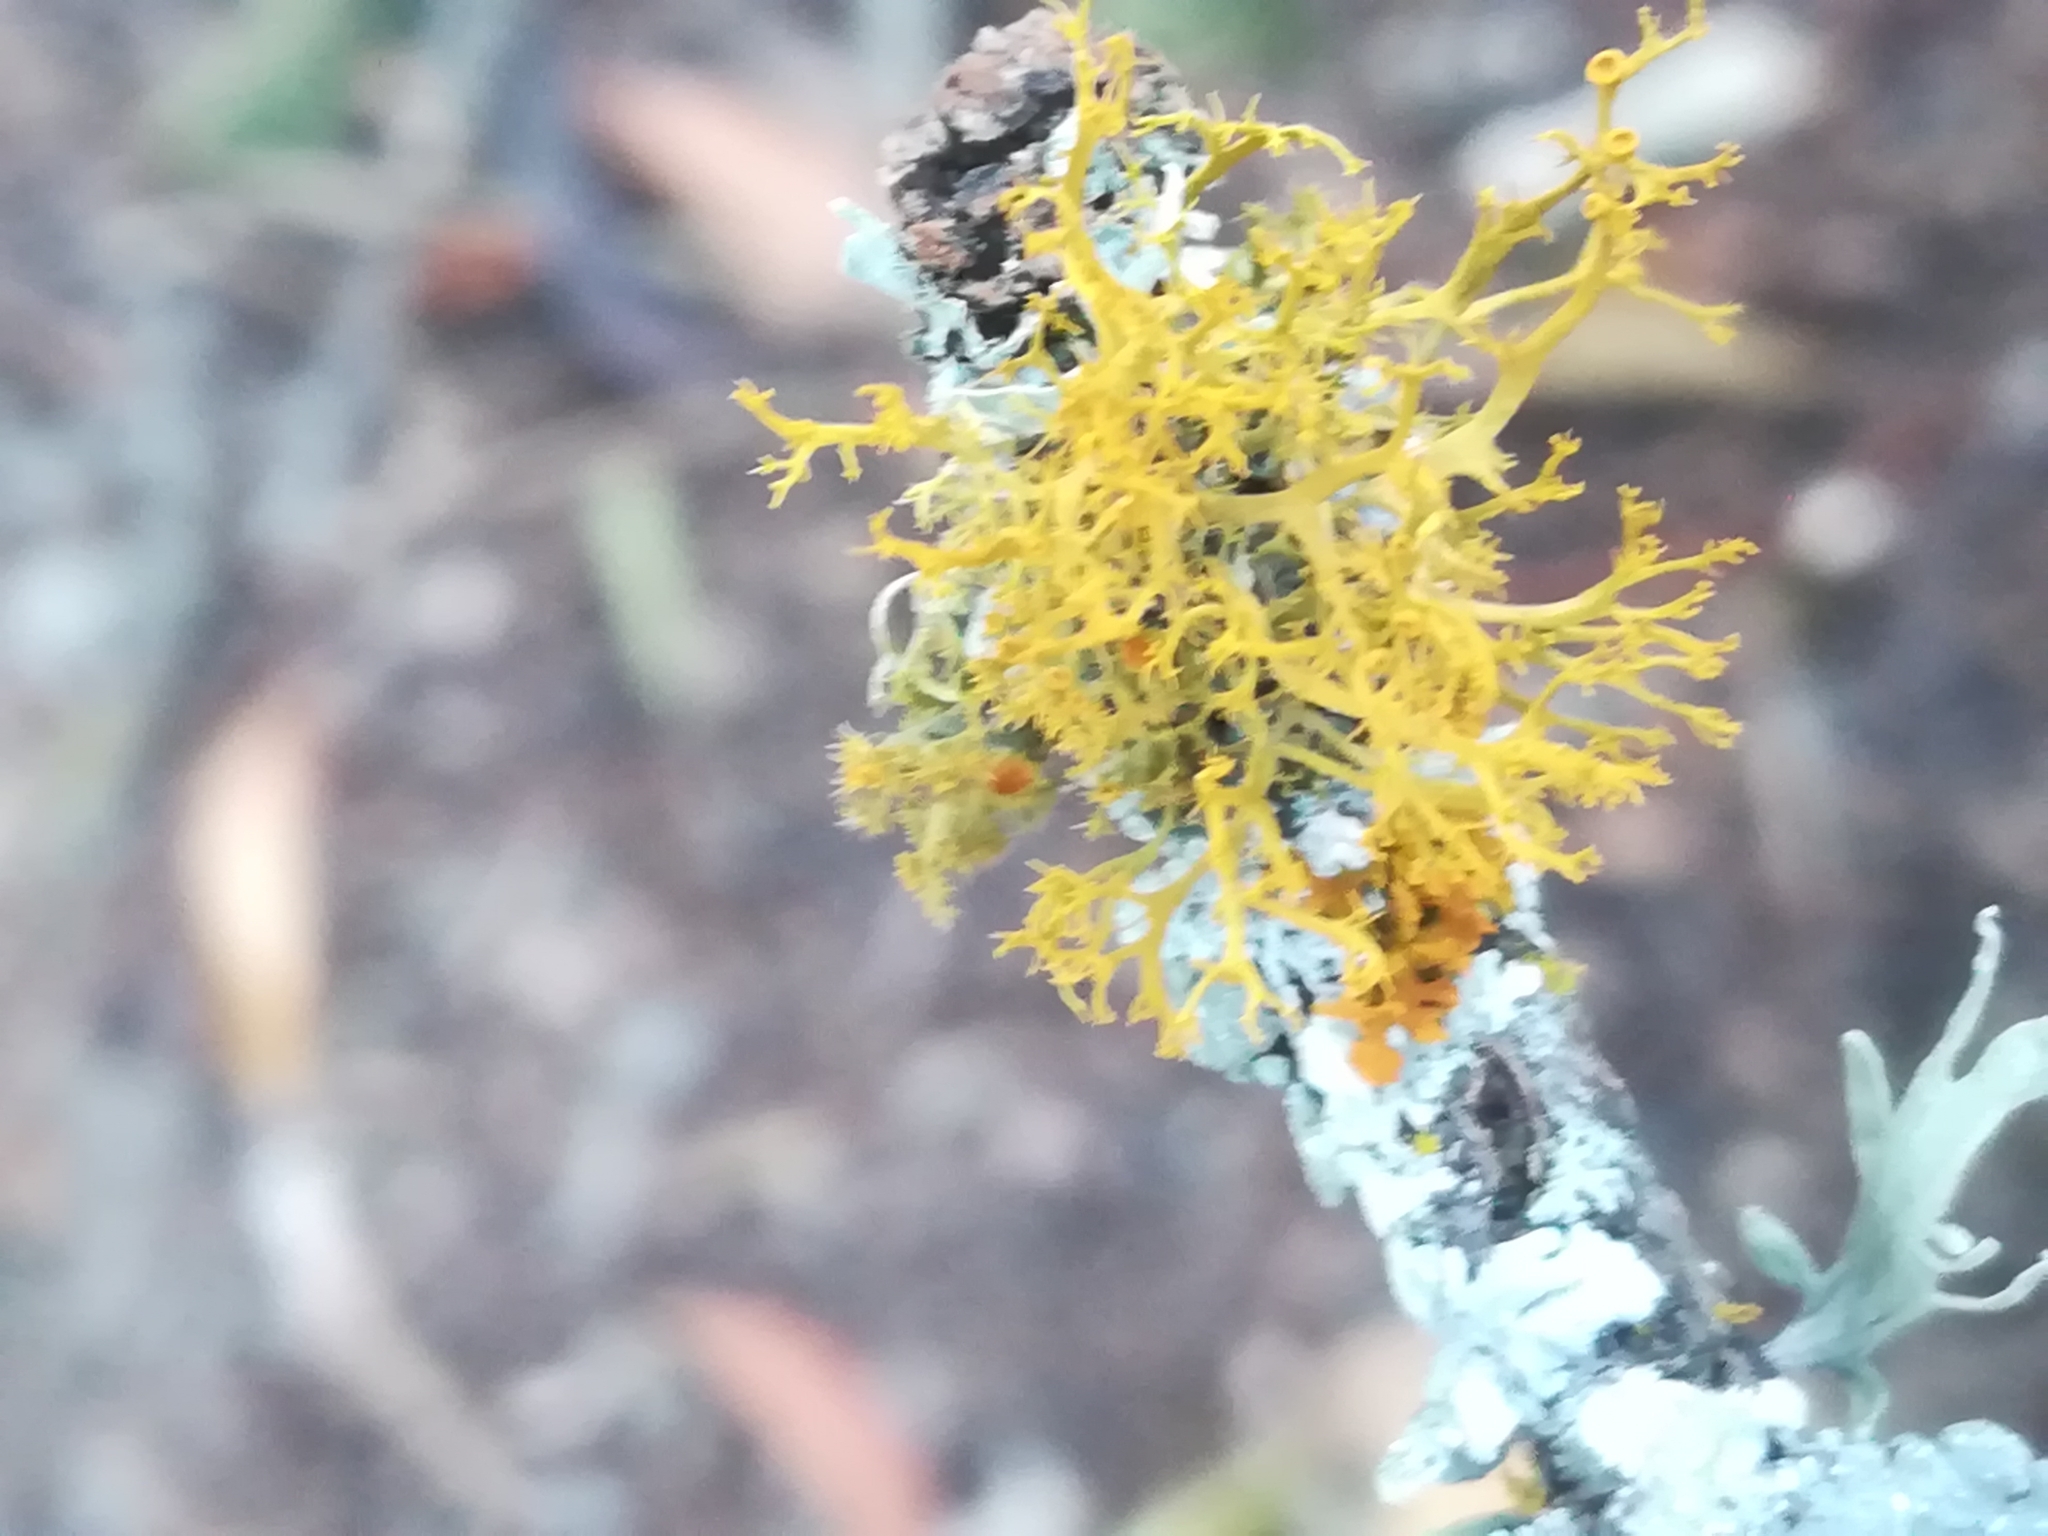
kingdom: Fungi
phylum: Ascomycota
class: Lecanoromycetes
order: Teloschistales
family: Teloschistaceae
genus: Teloschistes
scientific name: Teloschistes exilis
